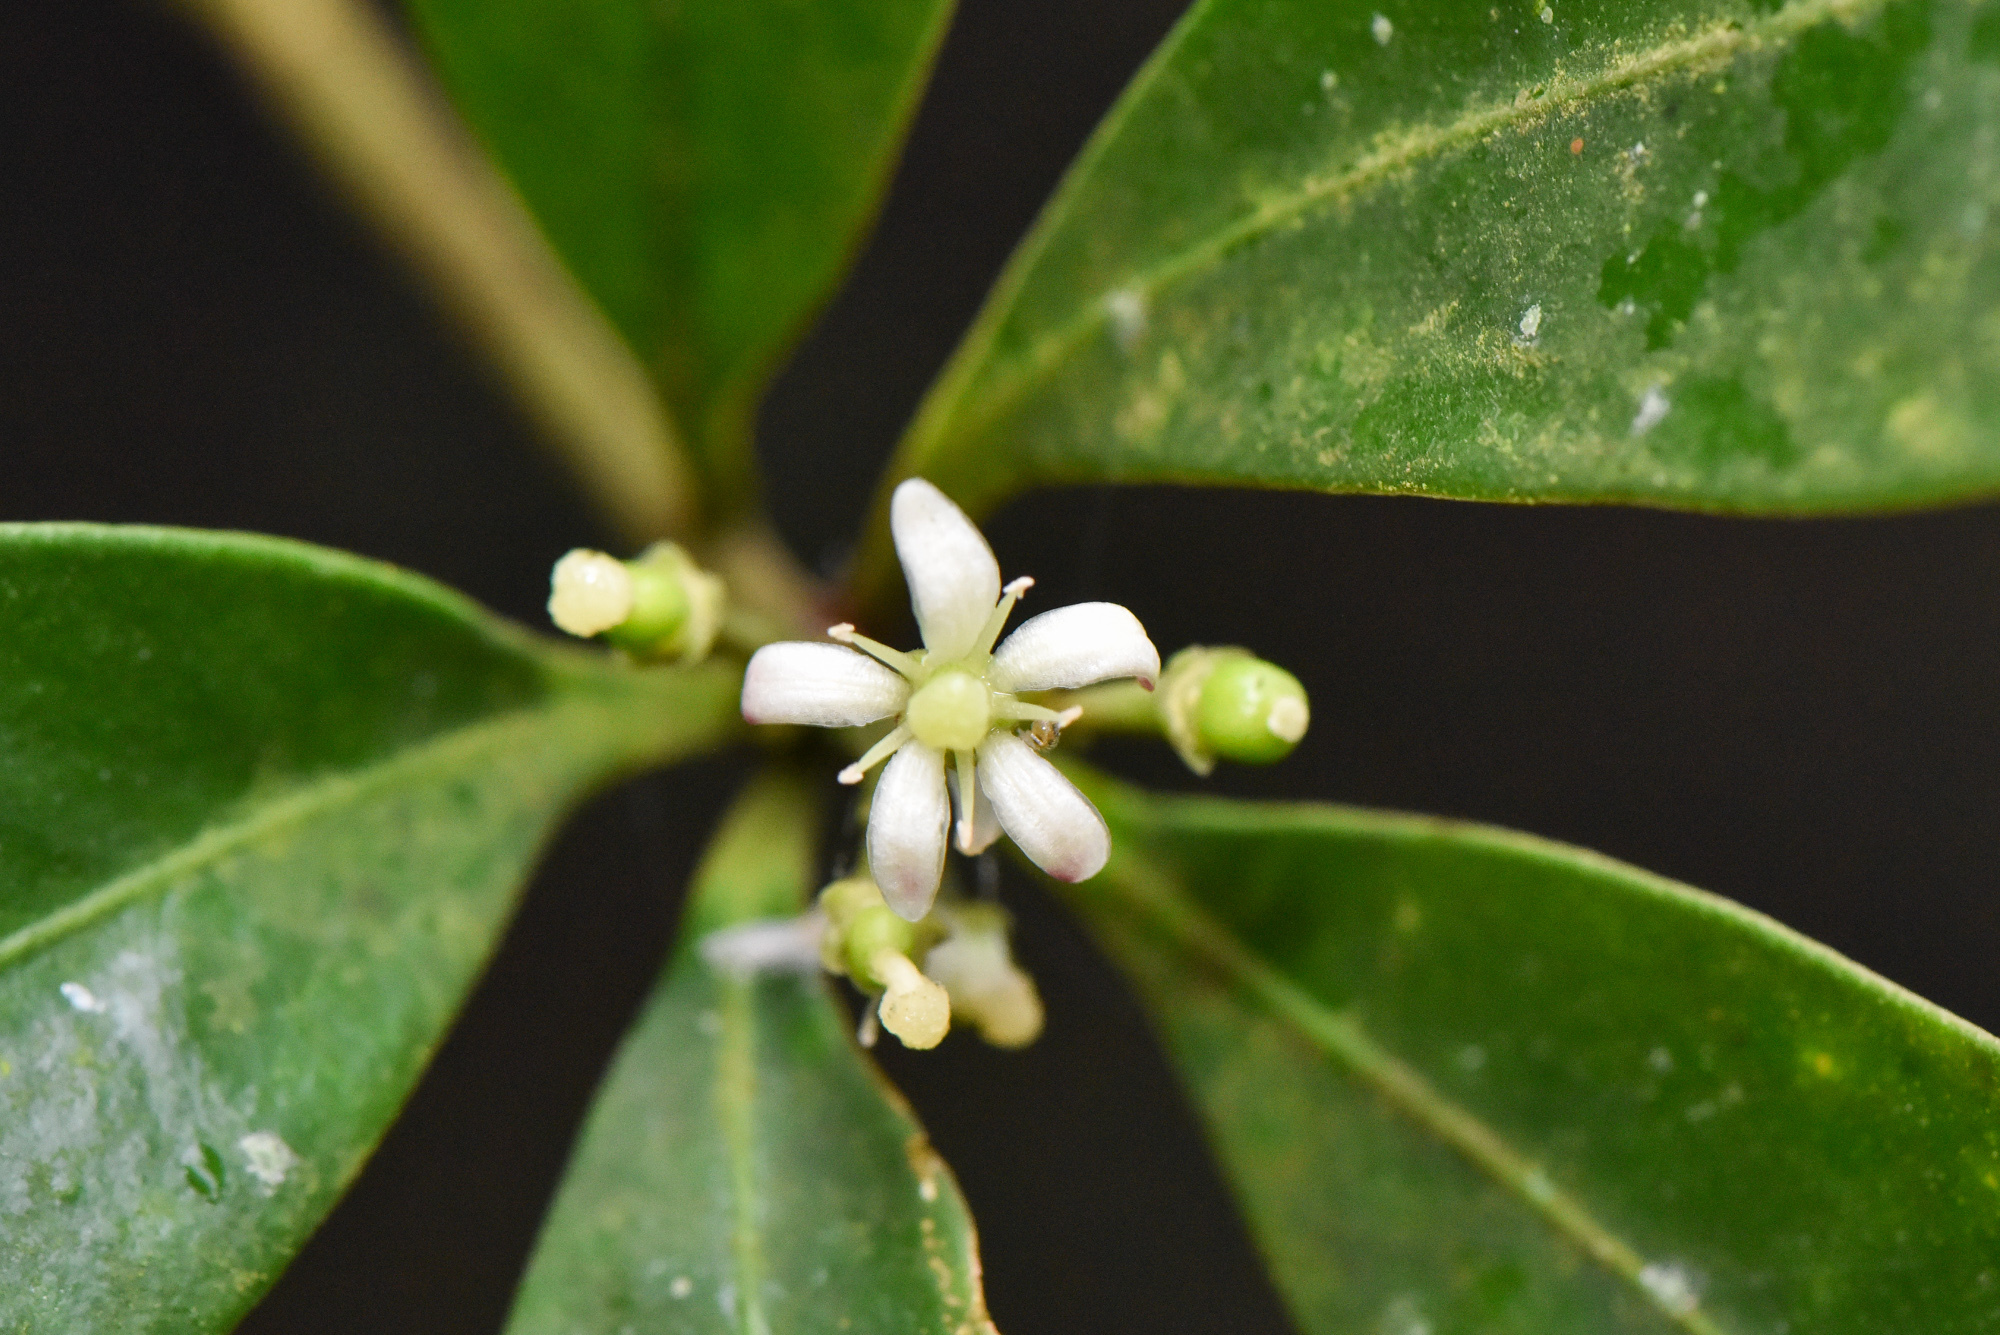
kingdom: Plantae
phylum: Tracheophyta
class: Magnoliopsida
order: Sapindales
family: Rutaceae
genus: Skimmia
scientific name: Skimmia japonica
